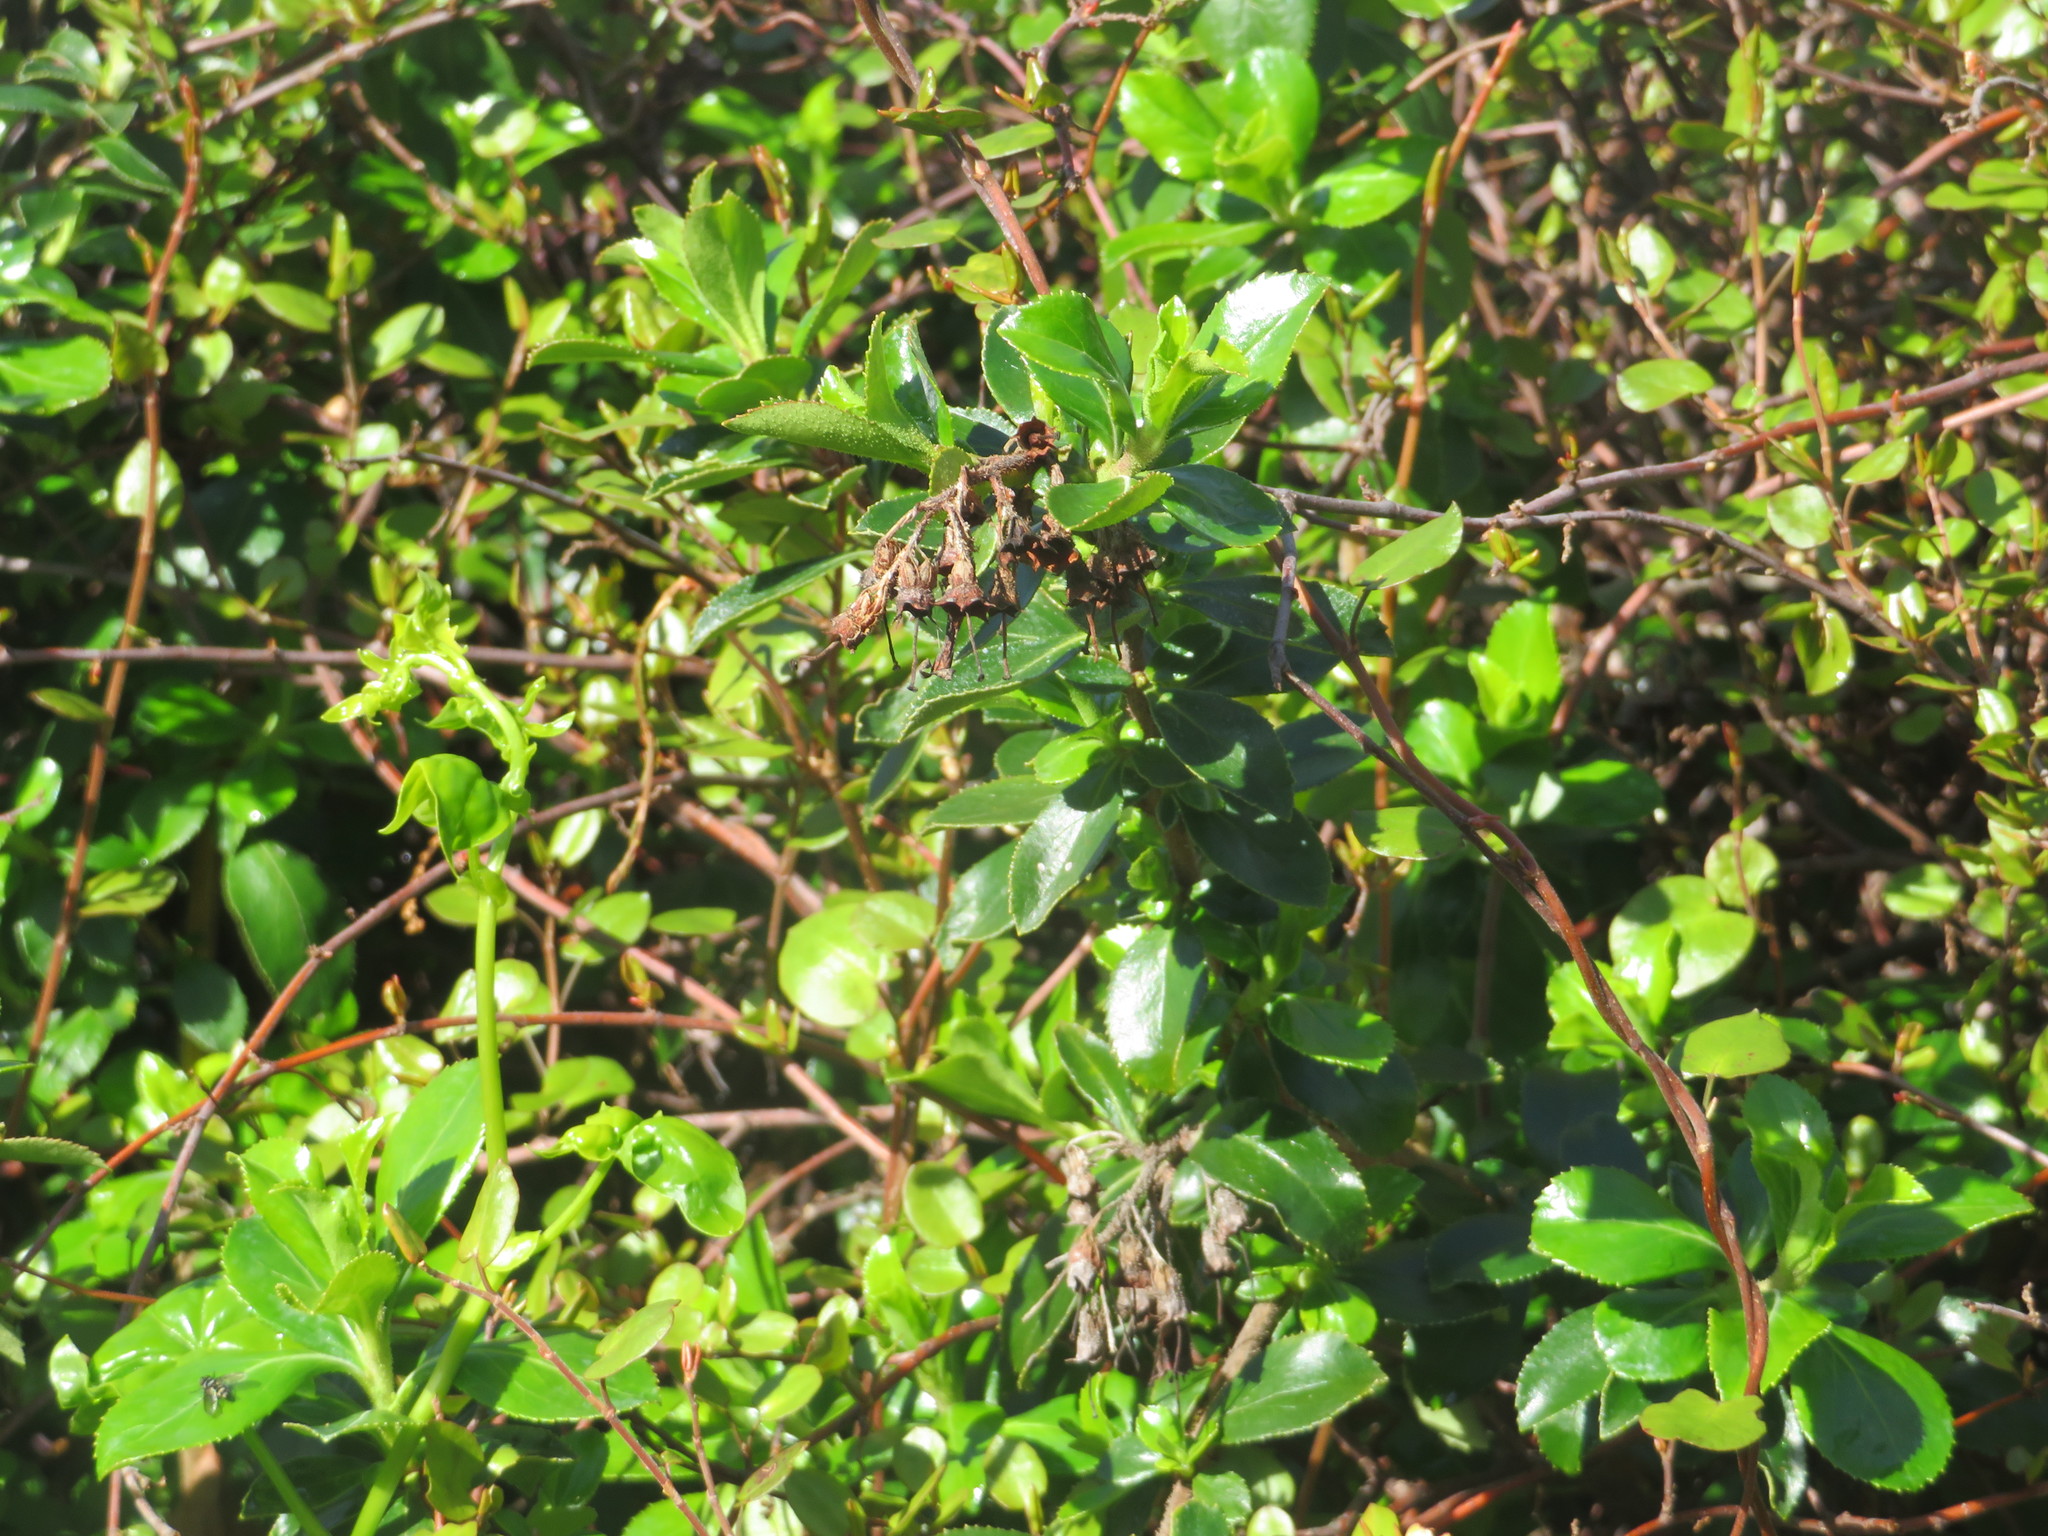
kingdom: Plantae
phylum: Tracheophyta
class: Magnoliopsida
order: Escalloniales
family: Escalloniaceae
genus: Escallonia
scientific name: Escallonia rubra
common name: Redclaws
